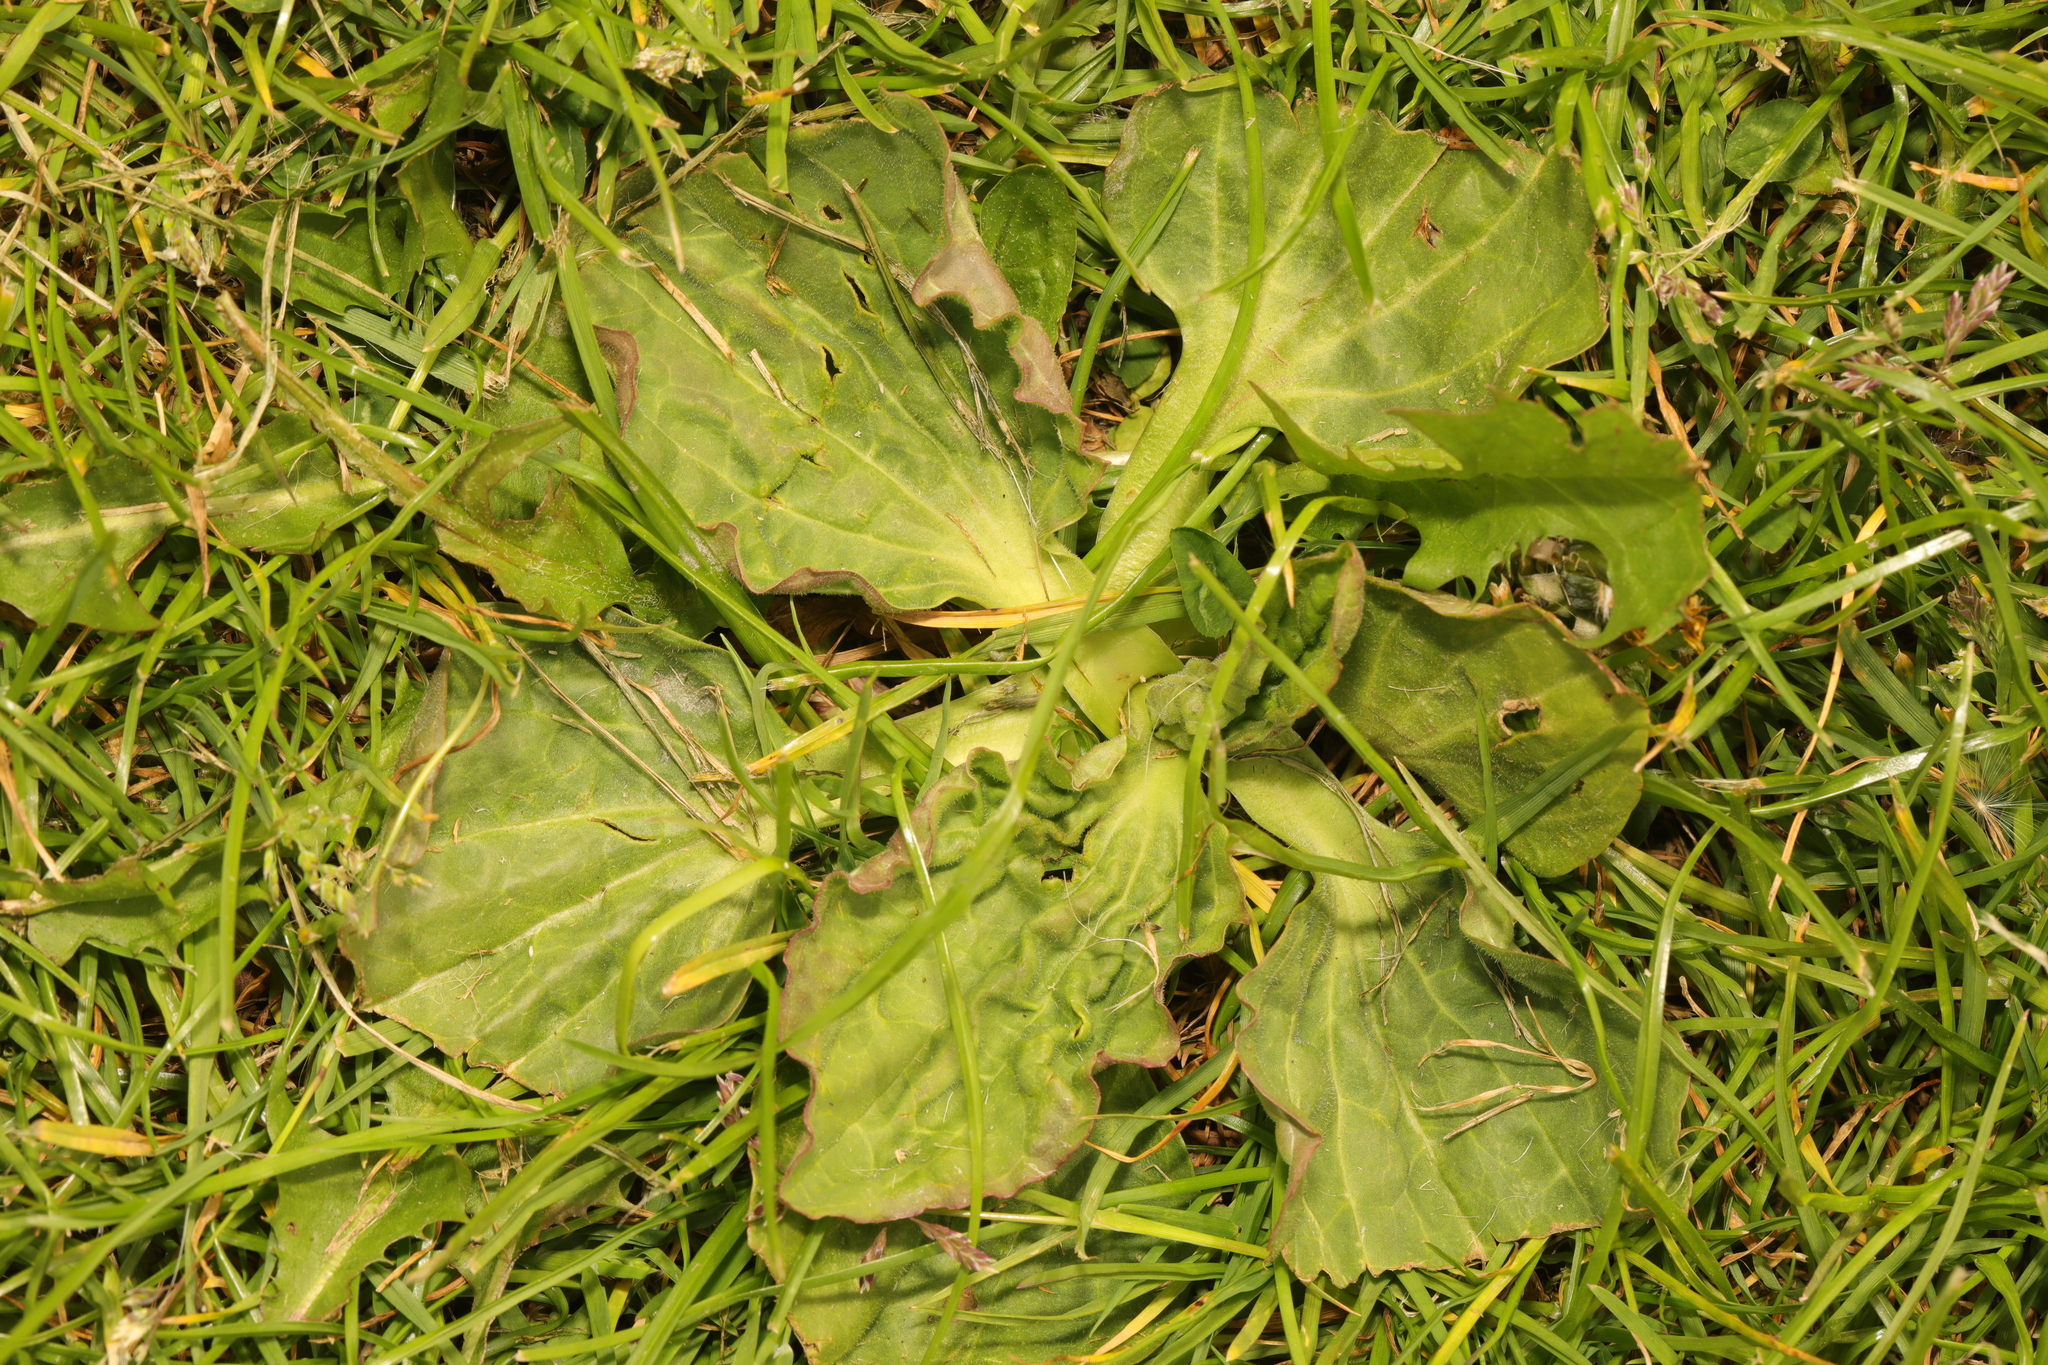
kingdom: Plantae
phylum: Tracheophyta
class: Magnoliopsida
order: Lamiales
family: Plantaginaceae
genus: Plantago
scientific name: Plantago major
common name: Common plantain
